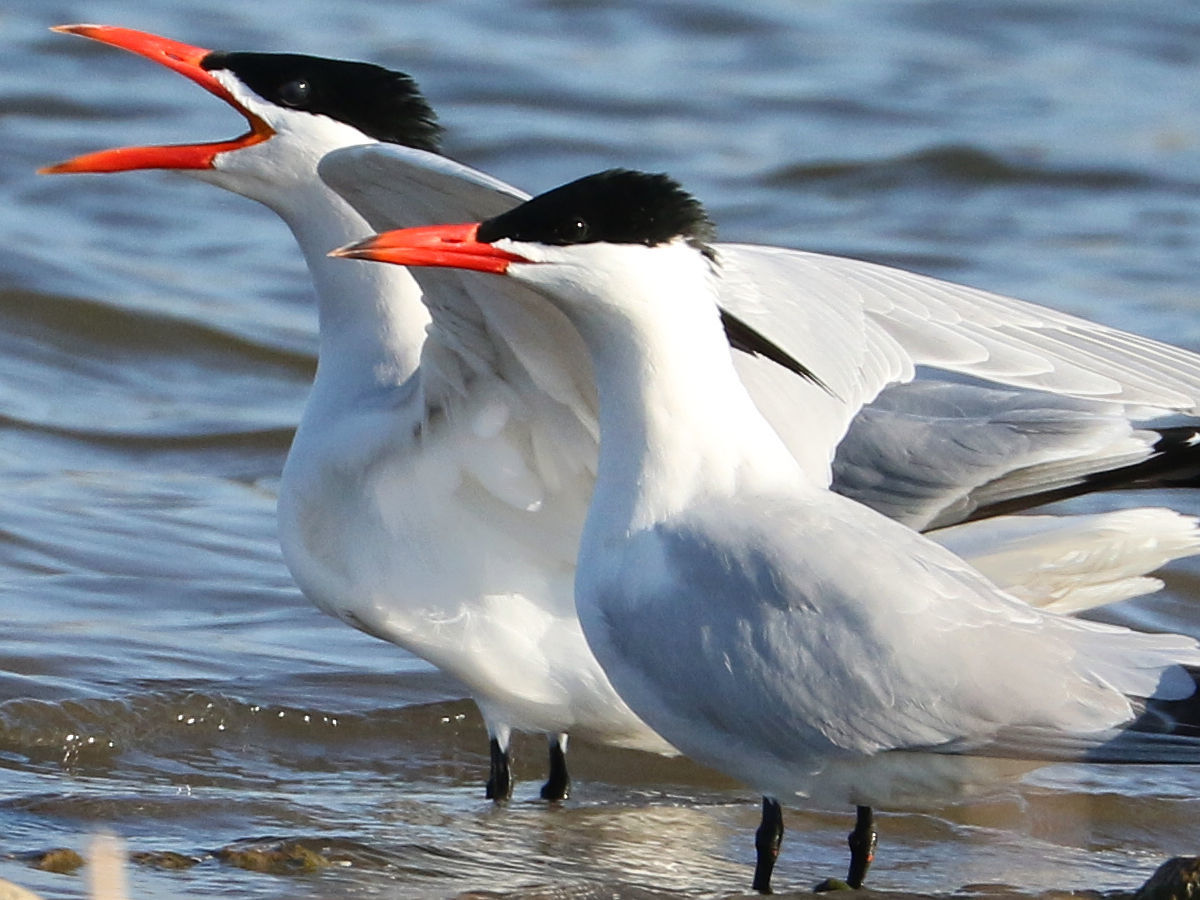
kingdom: Animalia
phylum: Chordata
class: Aves
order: Charadriiformes
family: Laridae
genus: Hydroprogne
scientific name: Hydroprogne caspia
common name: Caspian tern
